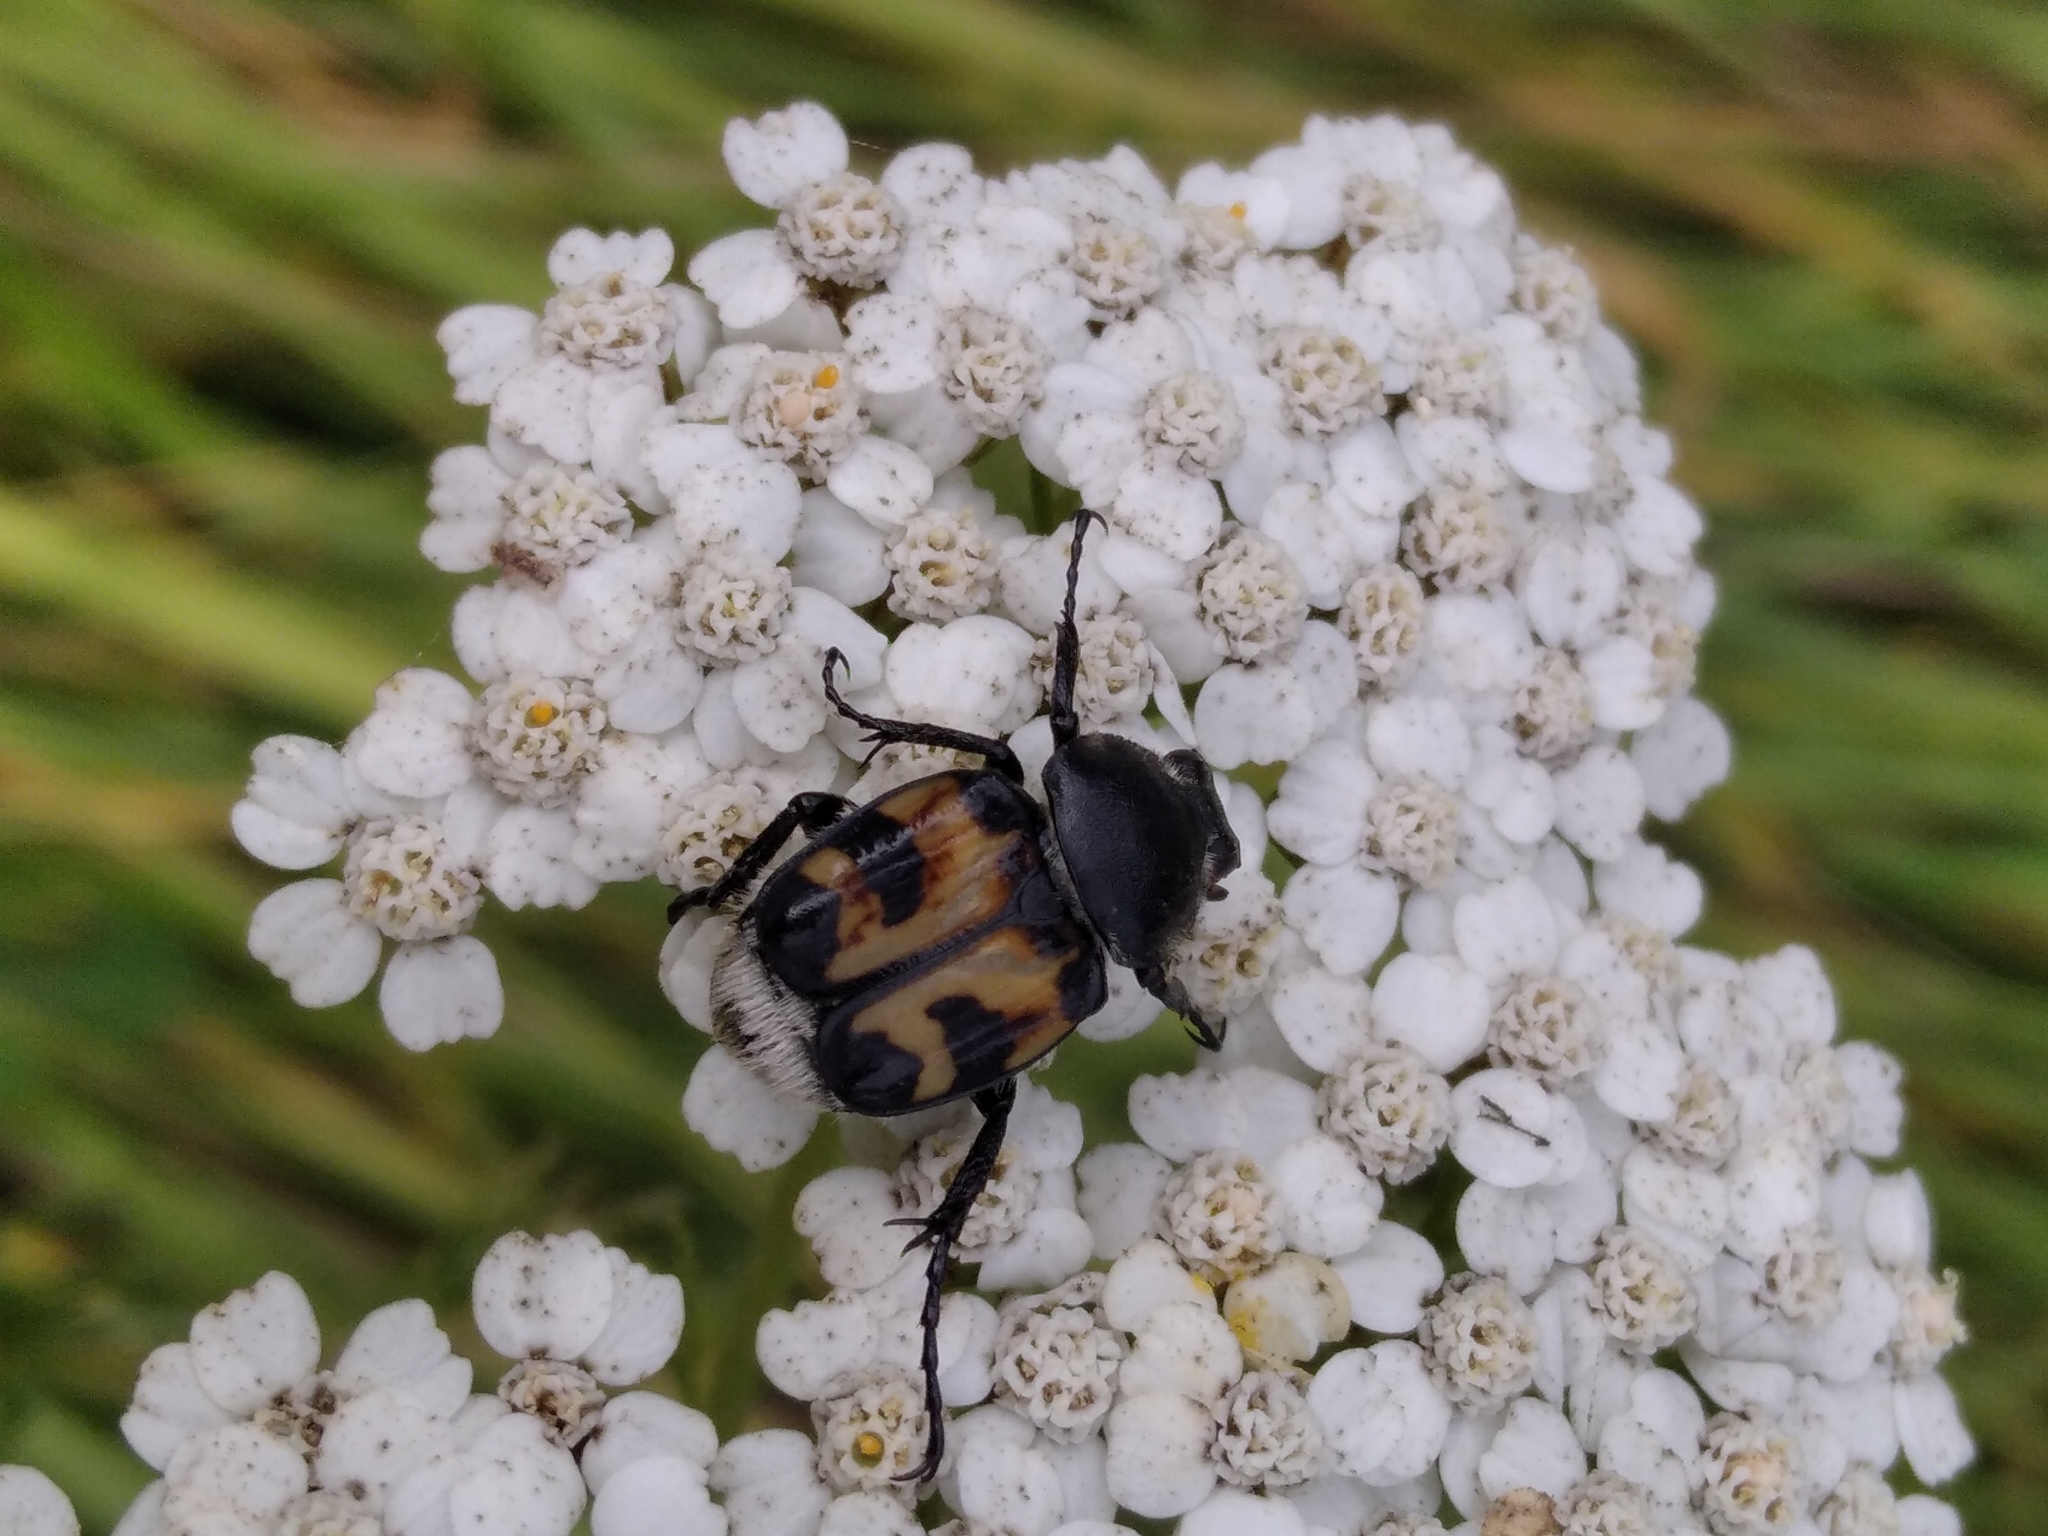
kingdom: Animalia
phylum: Arthropoda
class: Insecta
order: Coleoptera
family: Scarabaeidae
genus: Trichius
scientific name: Trichius fasciatus
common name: Bee beetle
